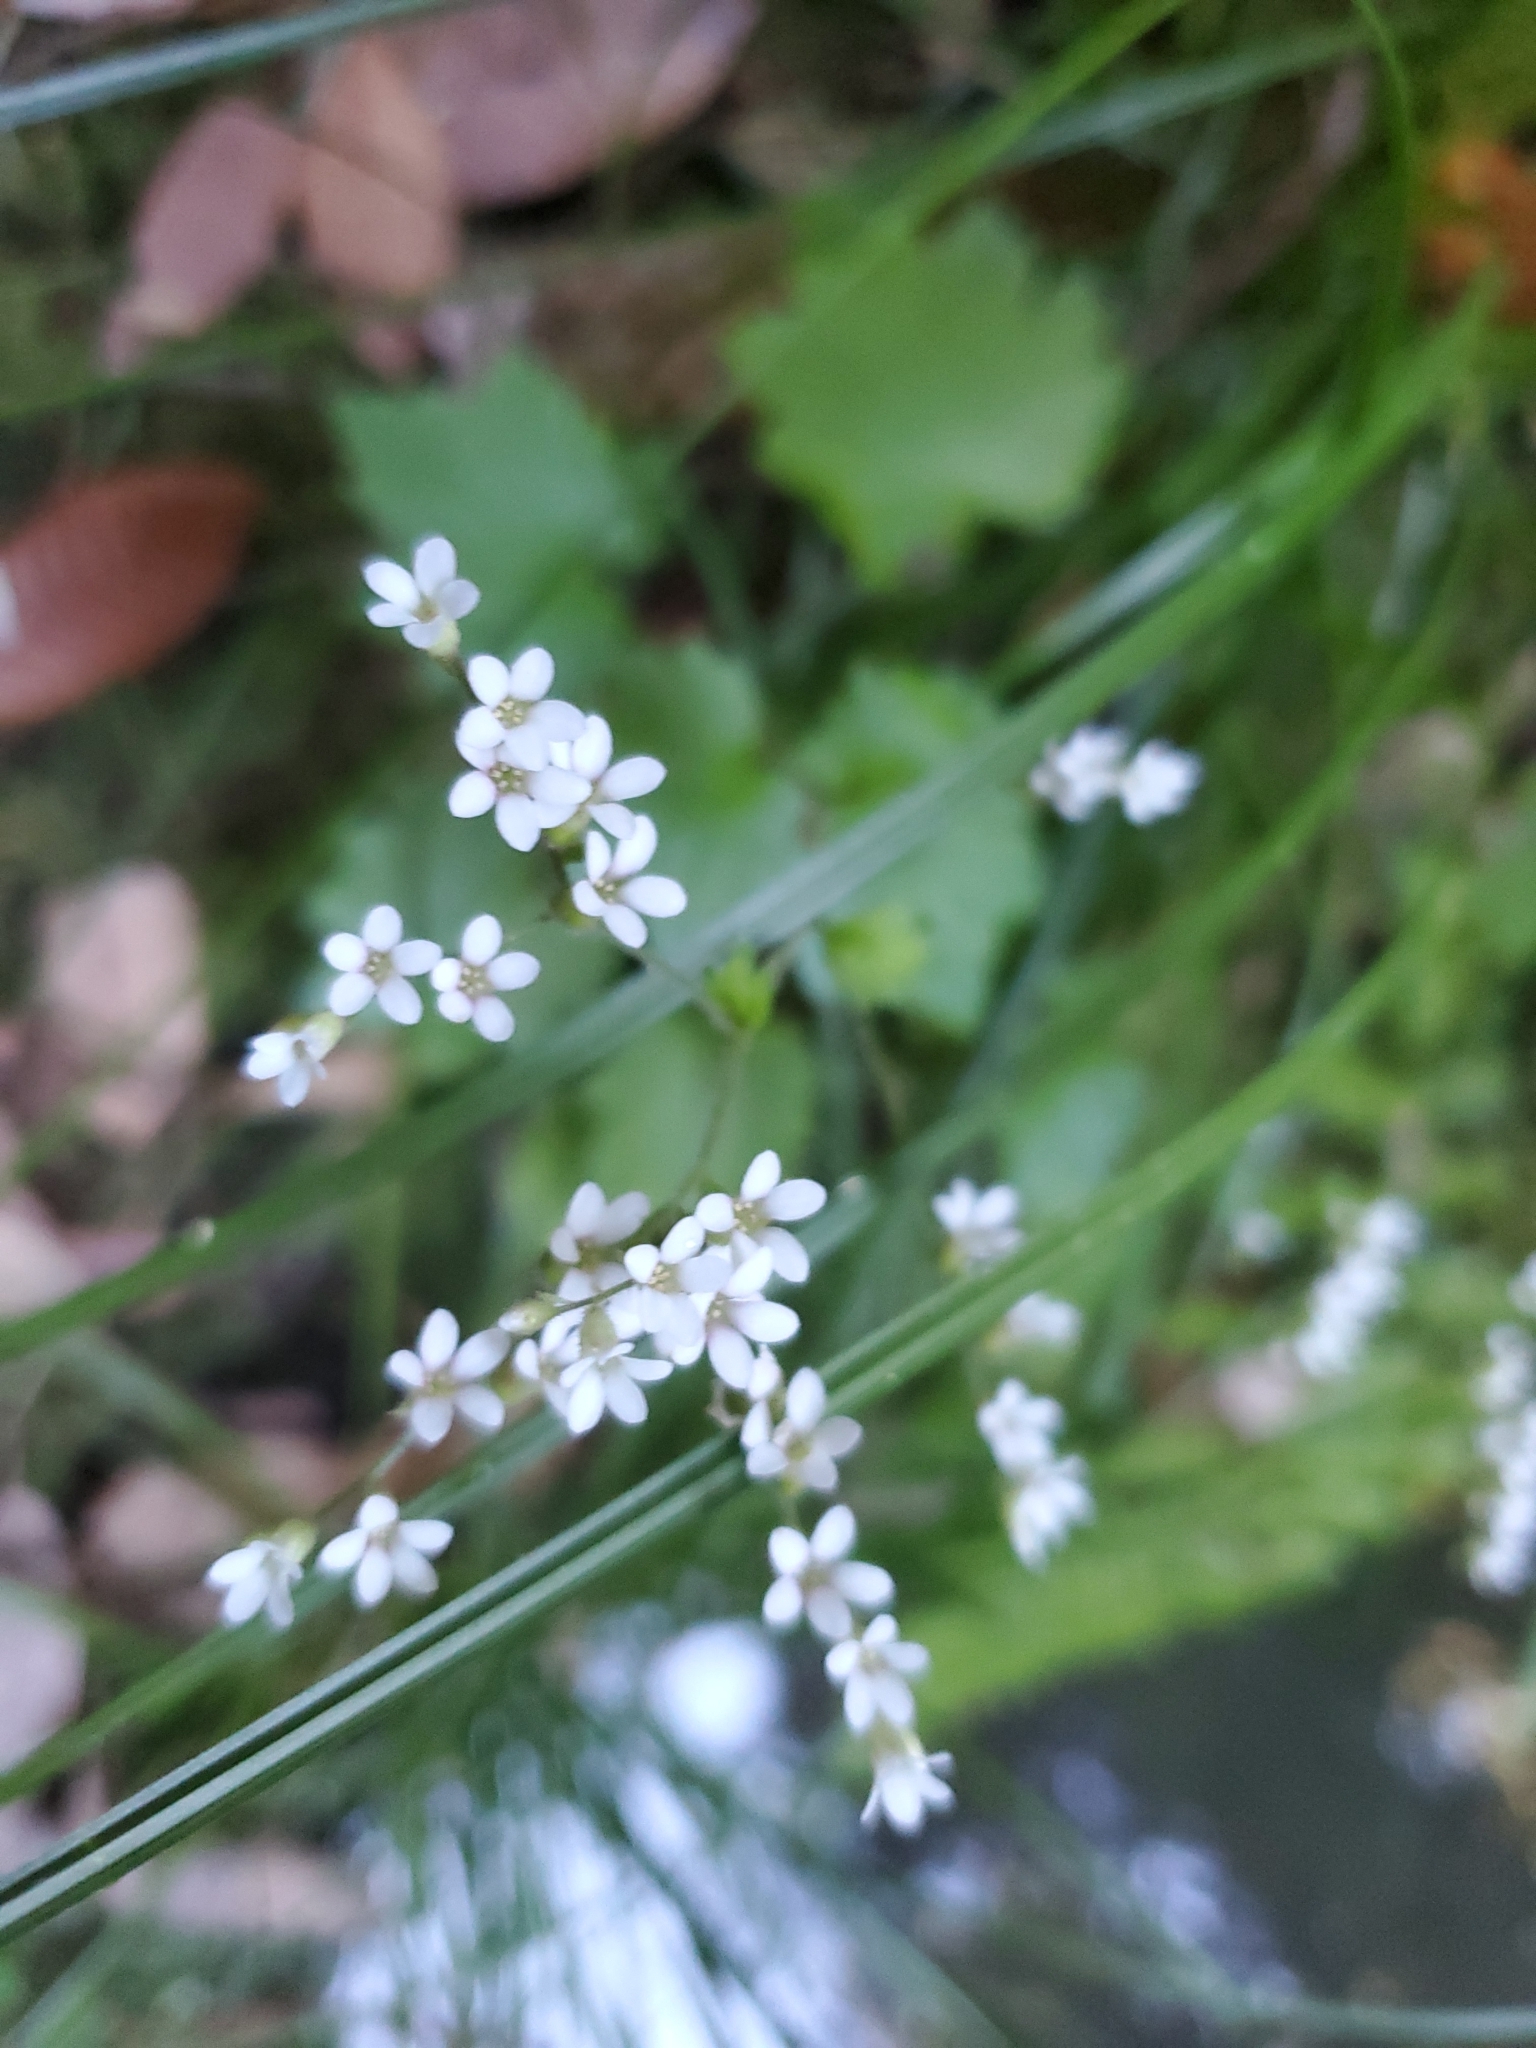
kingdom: Plantae
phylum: Tracheophyta
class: Magnoliopsida
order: Saxifragales
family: Saxifragaceae
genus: Boykinia
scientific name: Boykinia occidentalis
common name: Coast boykinia
